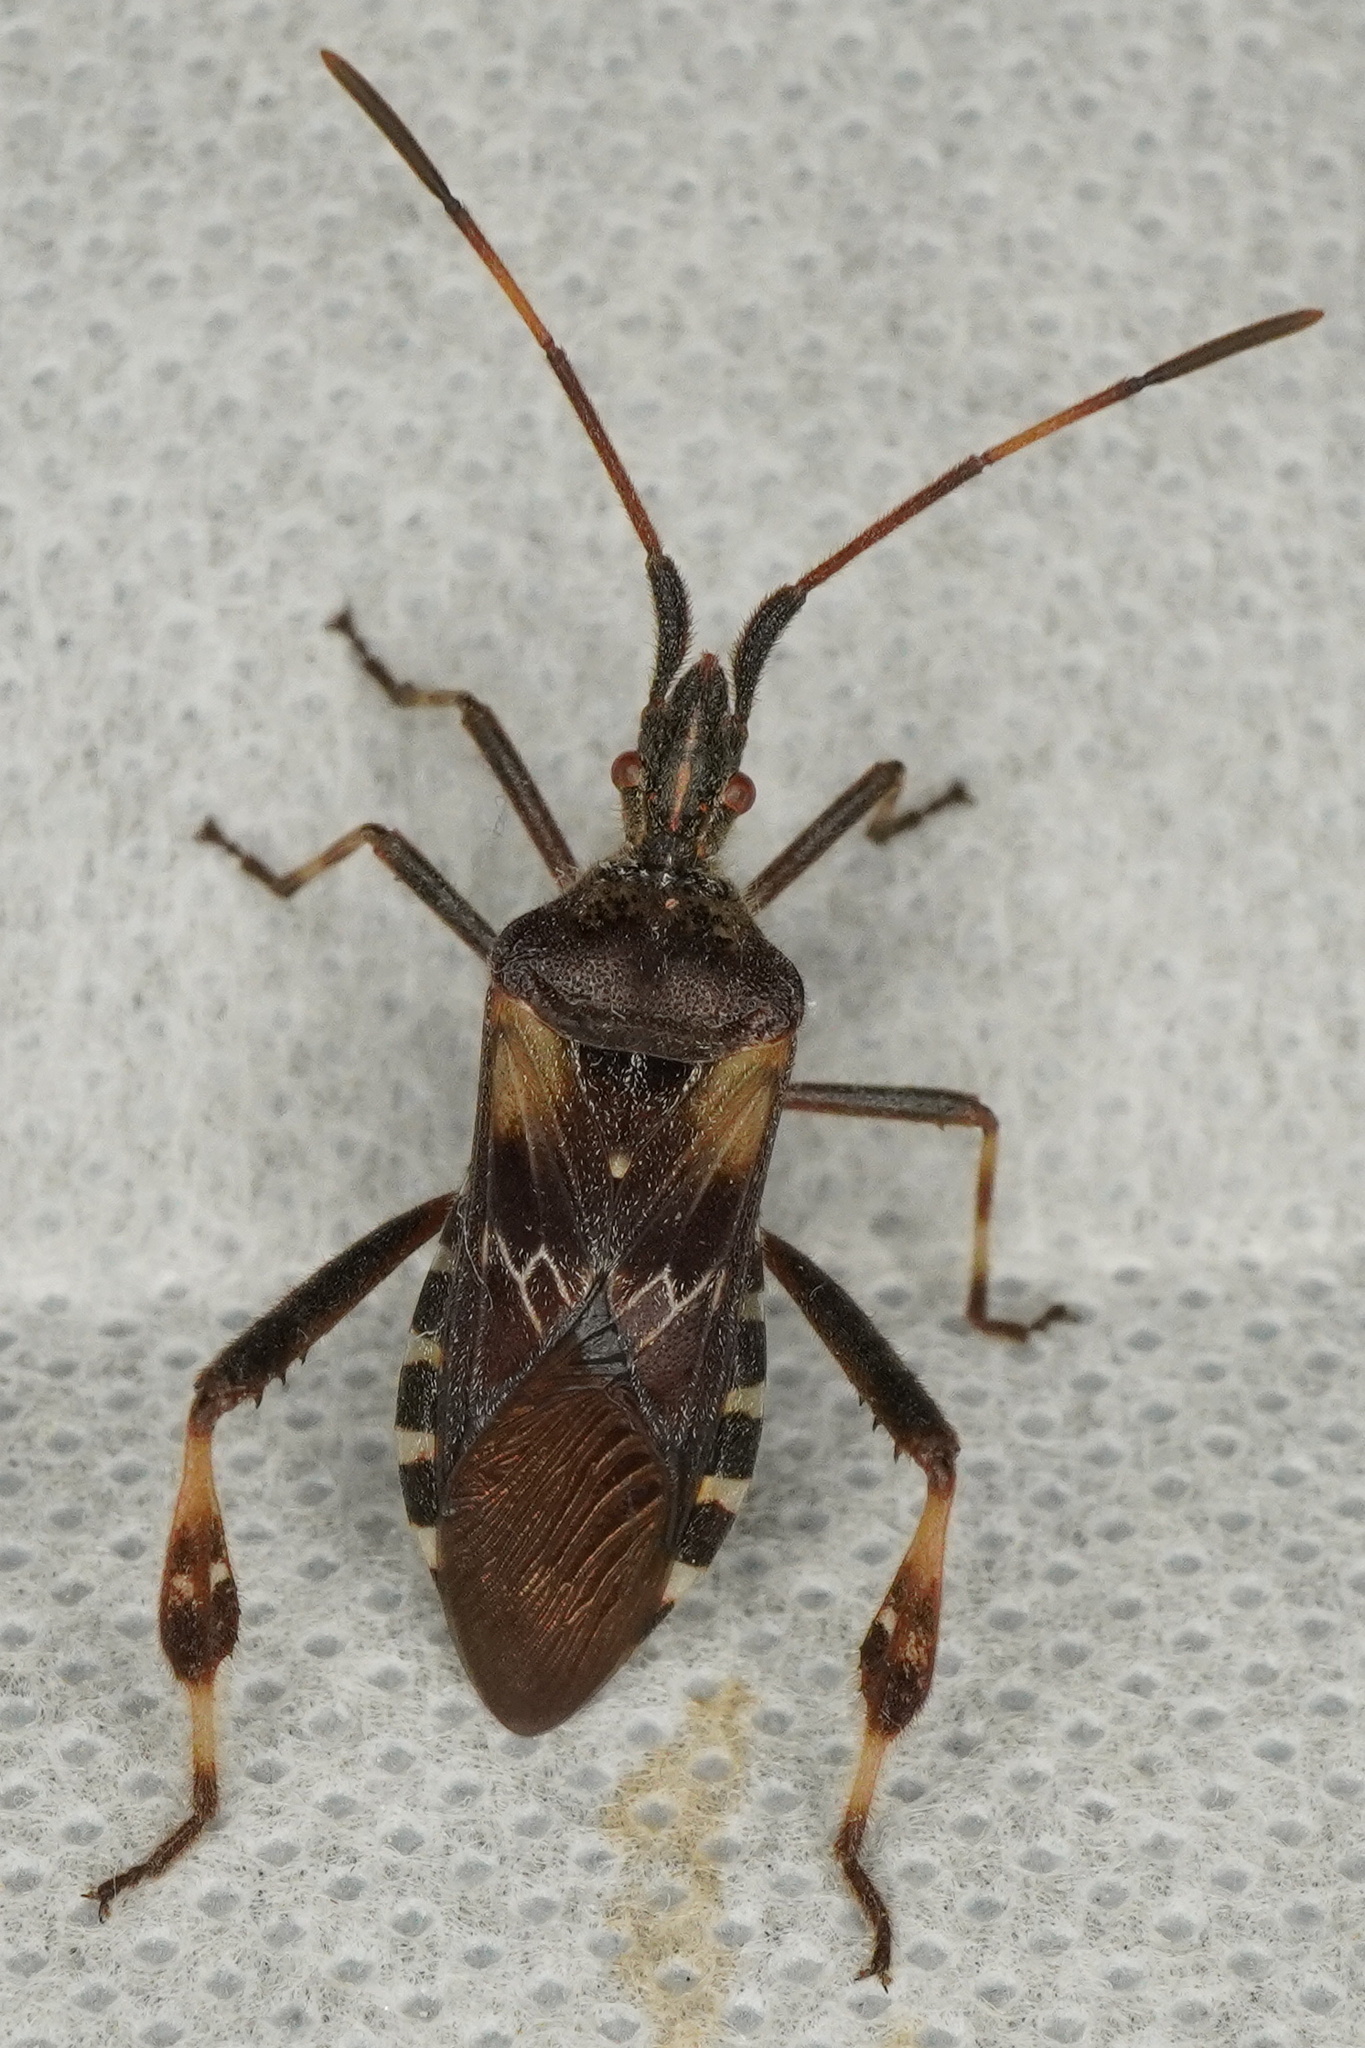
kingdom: Animalia
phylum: Arthropoda
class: Insecta
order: Hemiptera
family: Coreidae
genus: Leptoglossus
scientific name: Leptoglossus occidentalis
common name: Western conifer-seed bug
